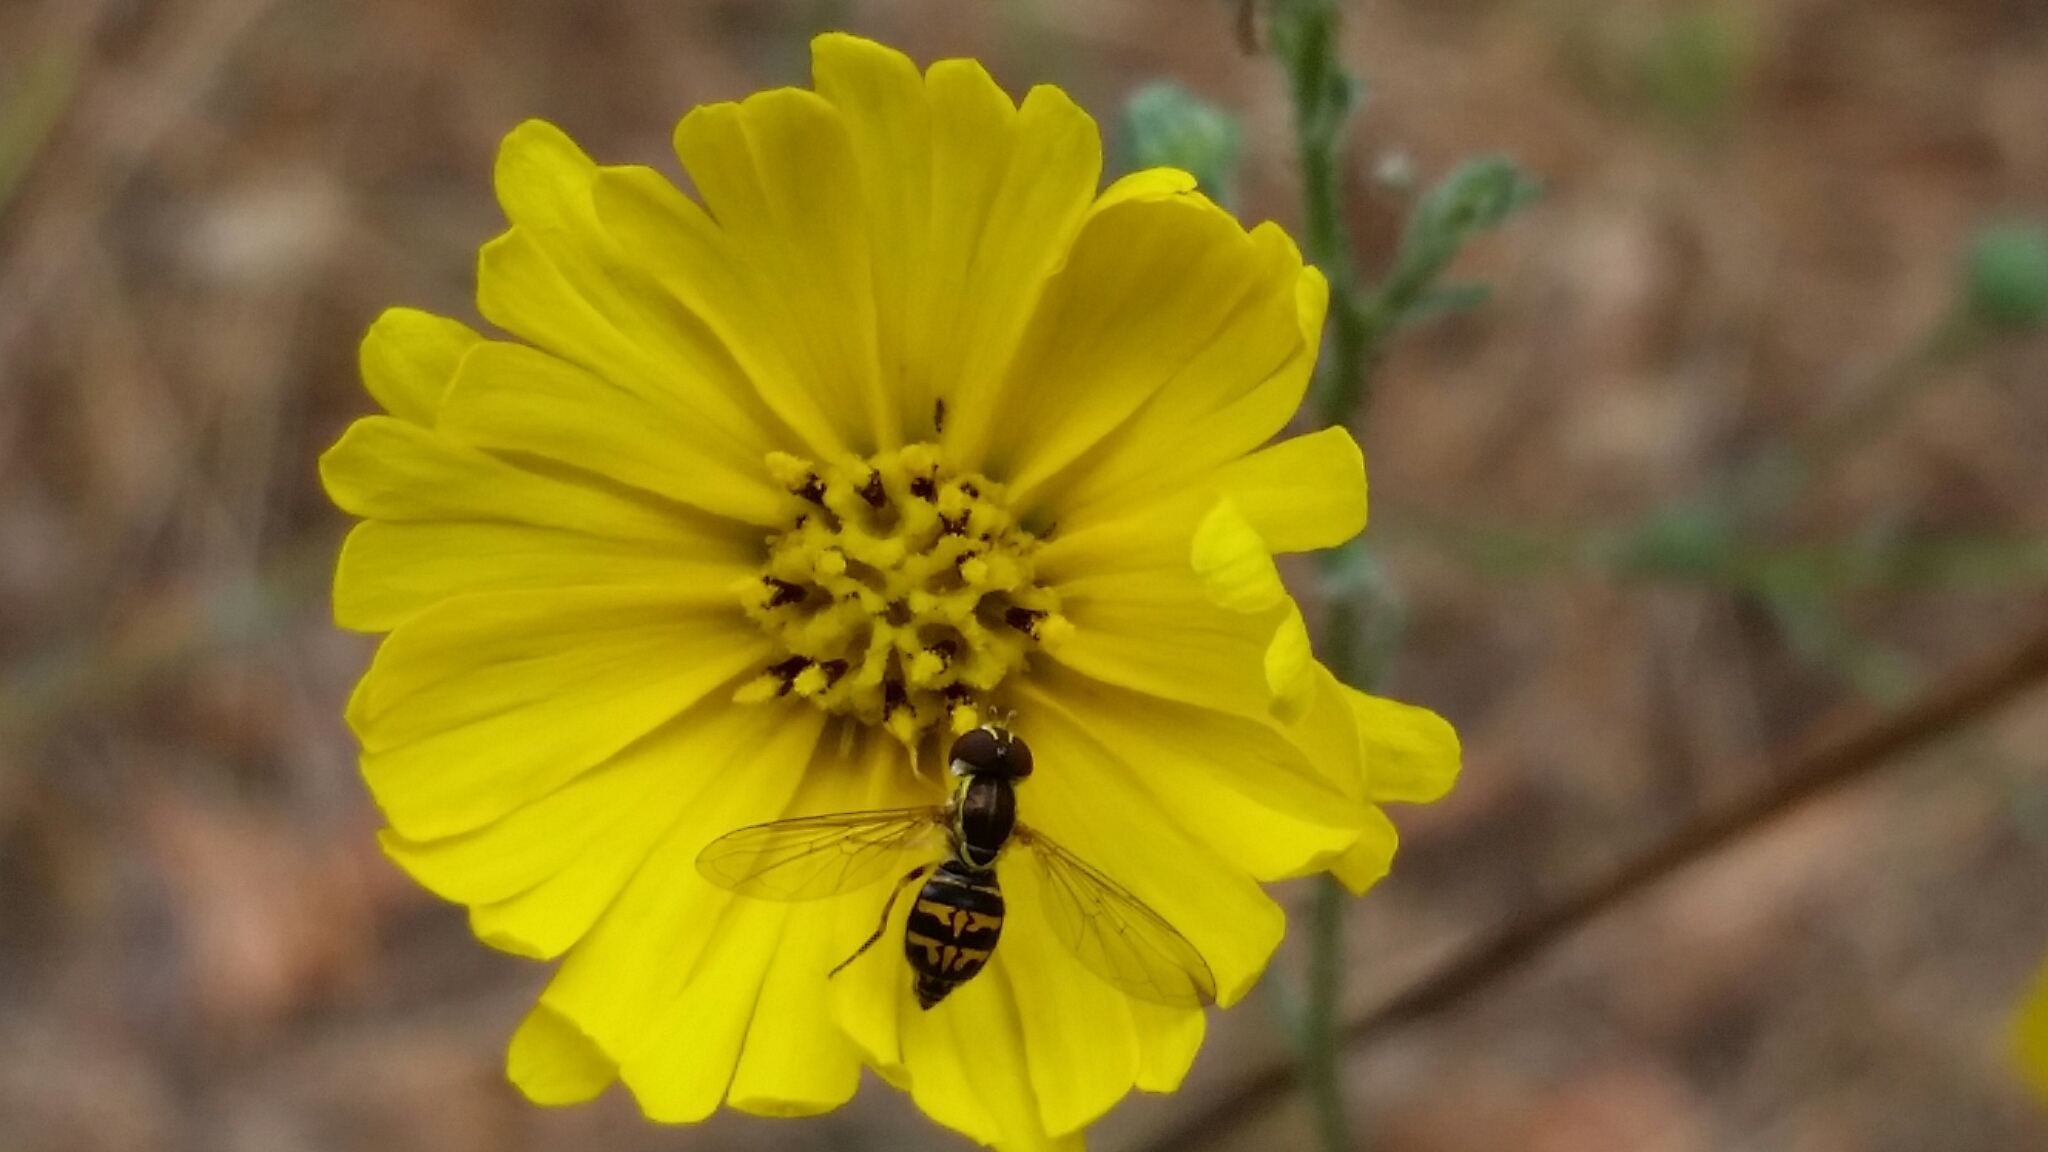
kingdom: Animalia
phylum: Arthropoda
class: Insecta
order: Diptera
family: Syrphidae
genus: Toxomerus
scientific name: Toxomerus occidentalis
